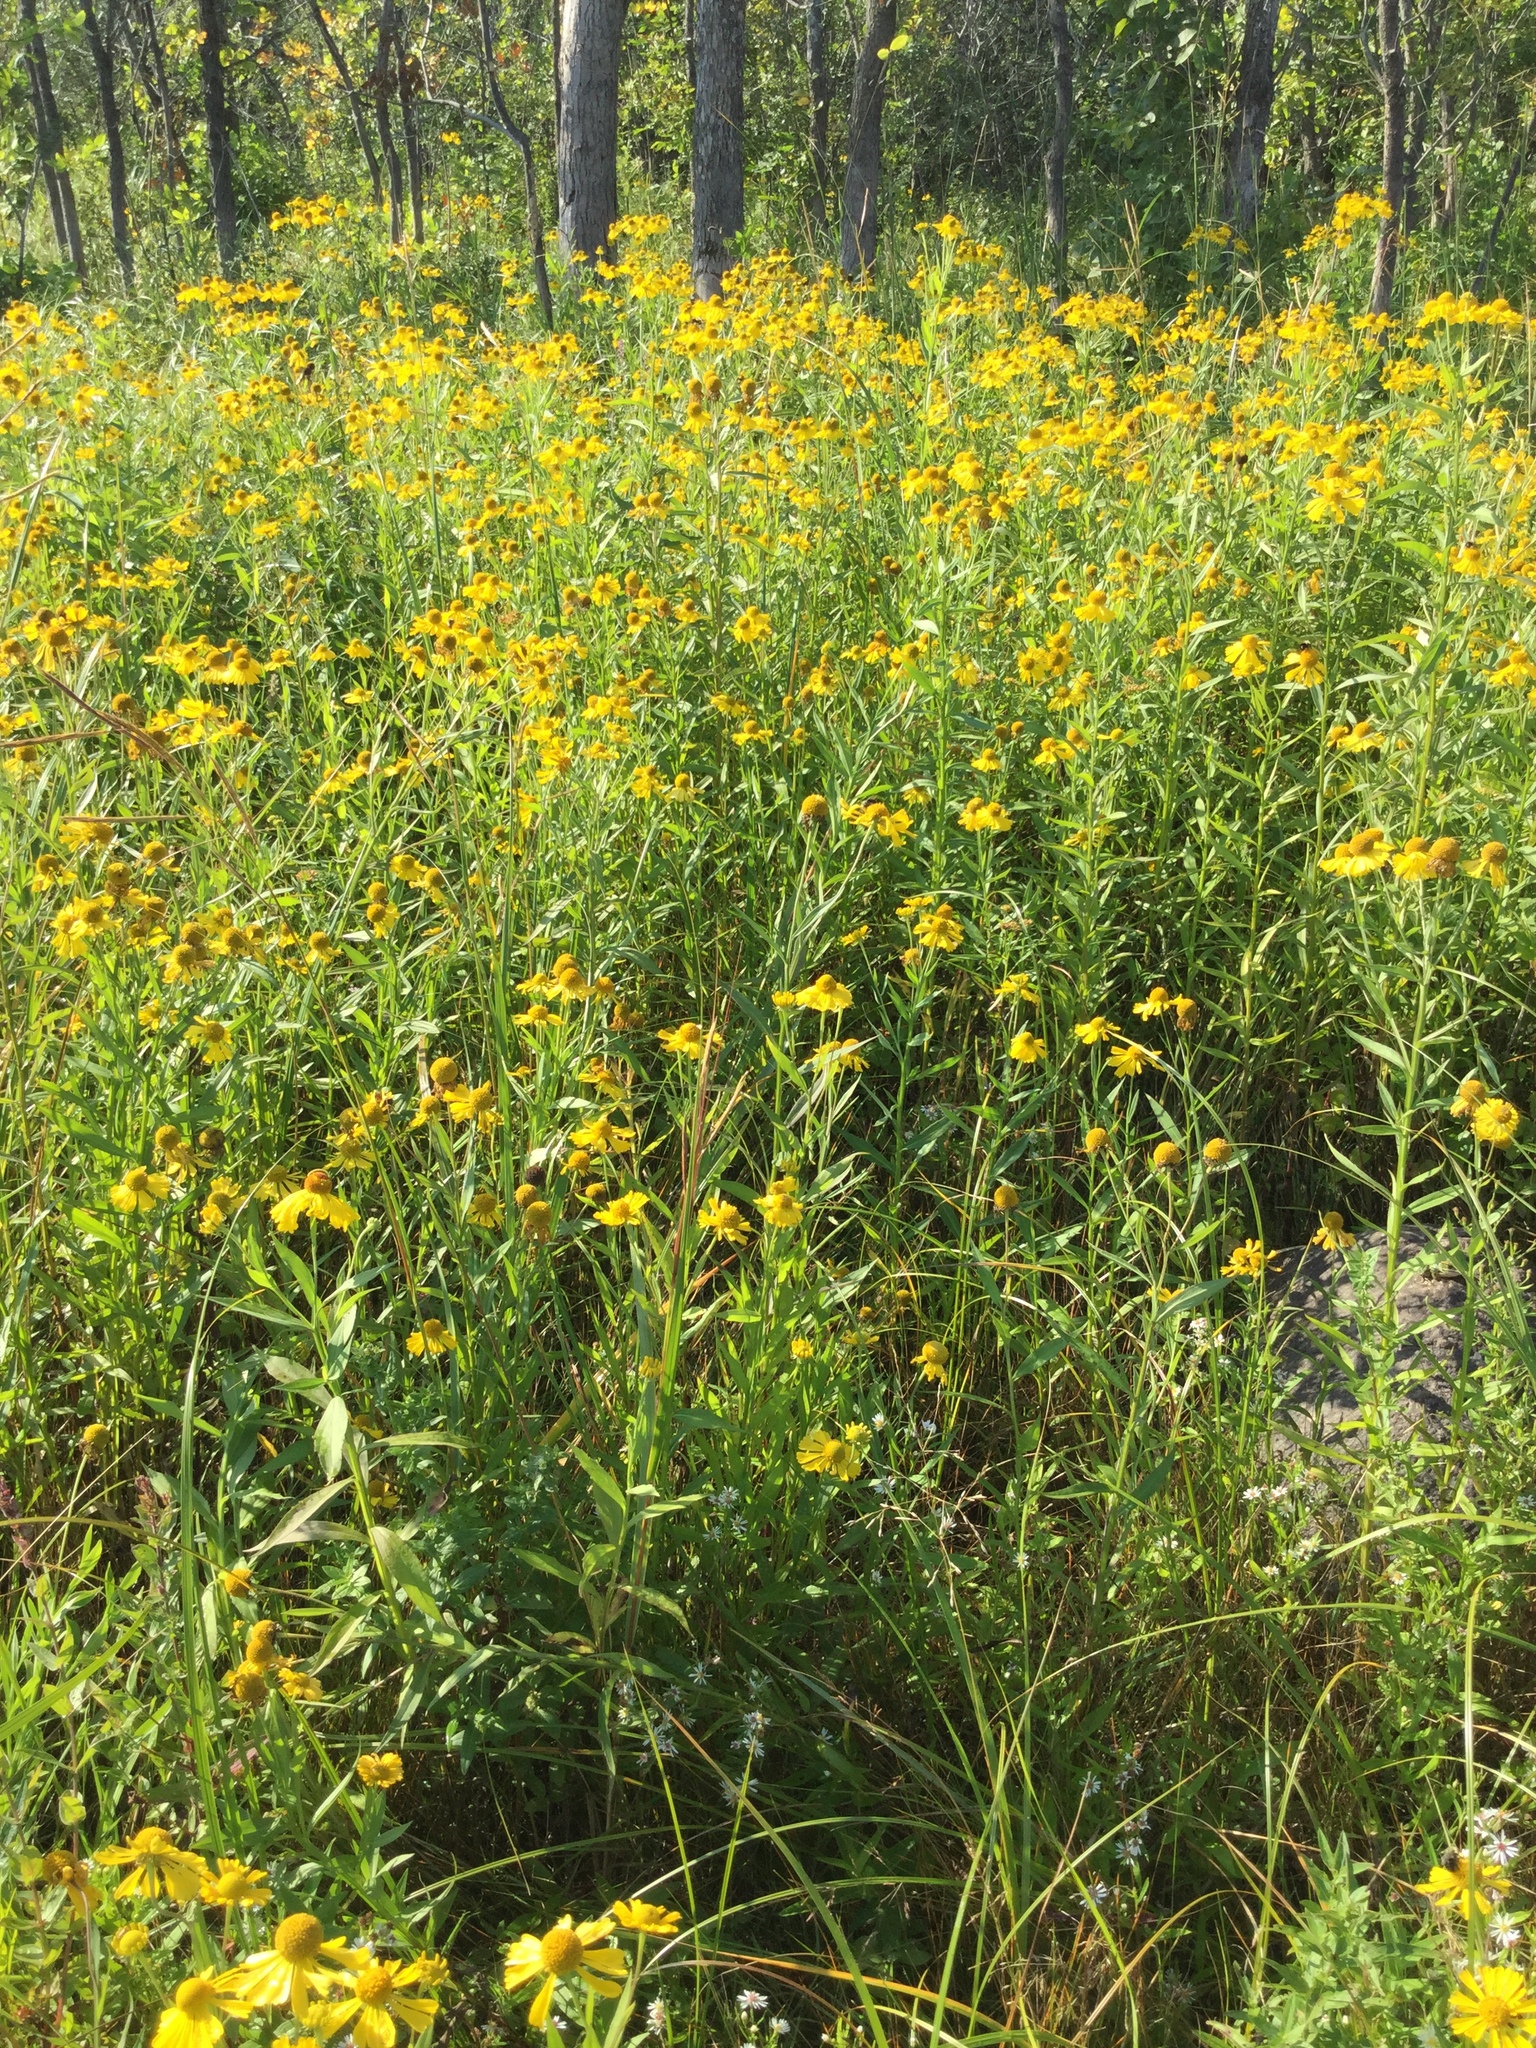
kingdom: Plantae
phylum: Tracheophyta
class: Magnoliopsida
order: Asterales
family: Asteraceae
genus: Helenium
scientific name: Helenium autumnale
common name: Sneezeweed
